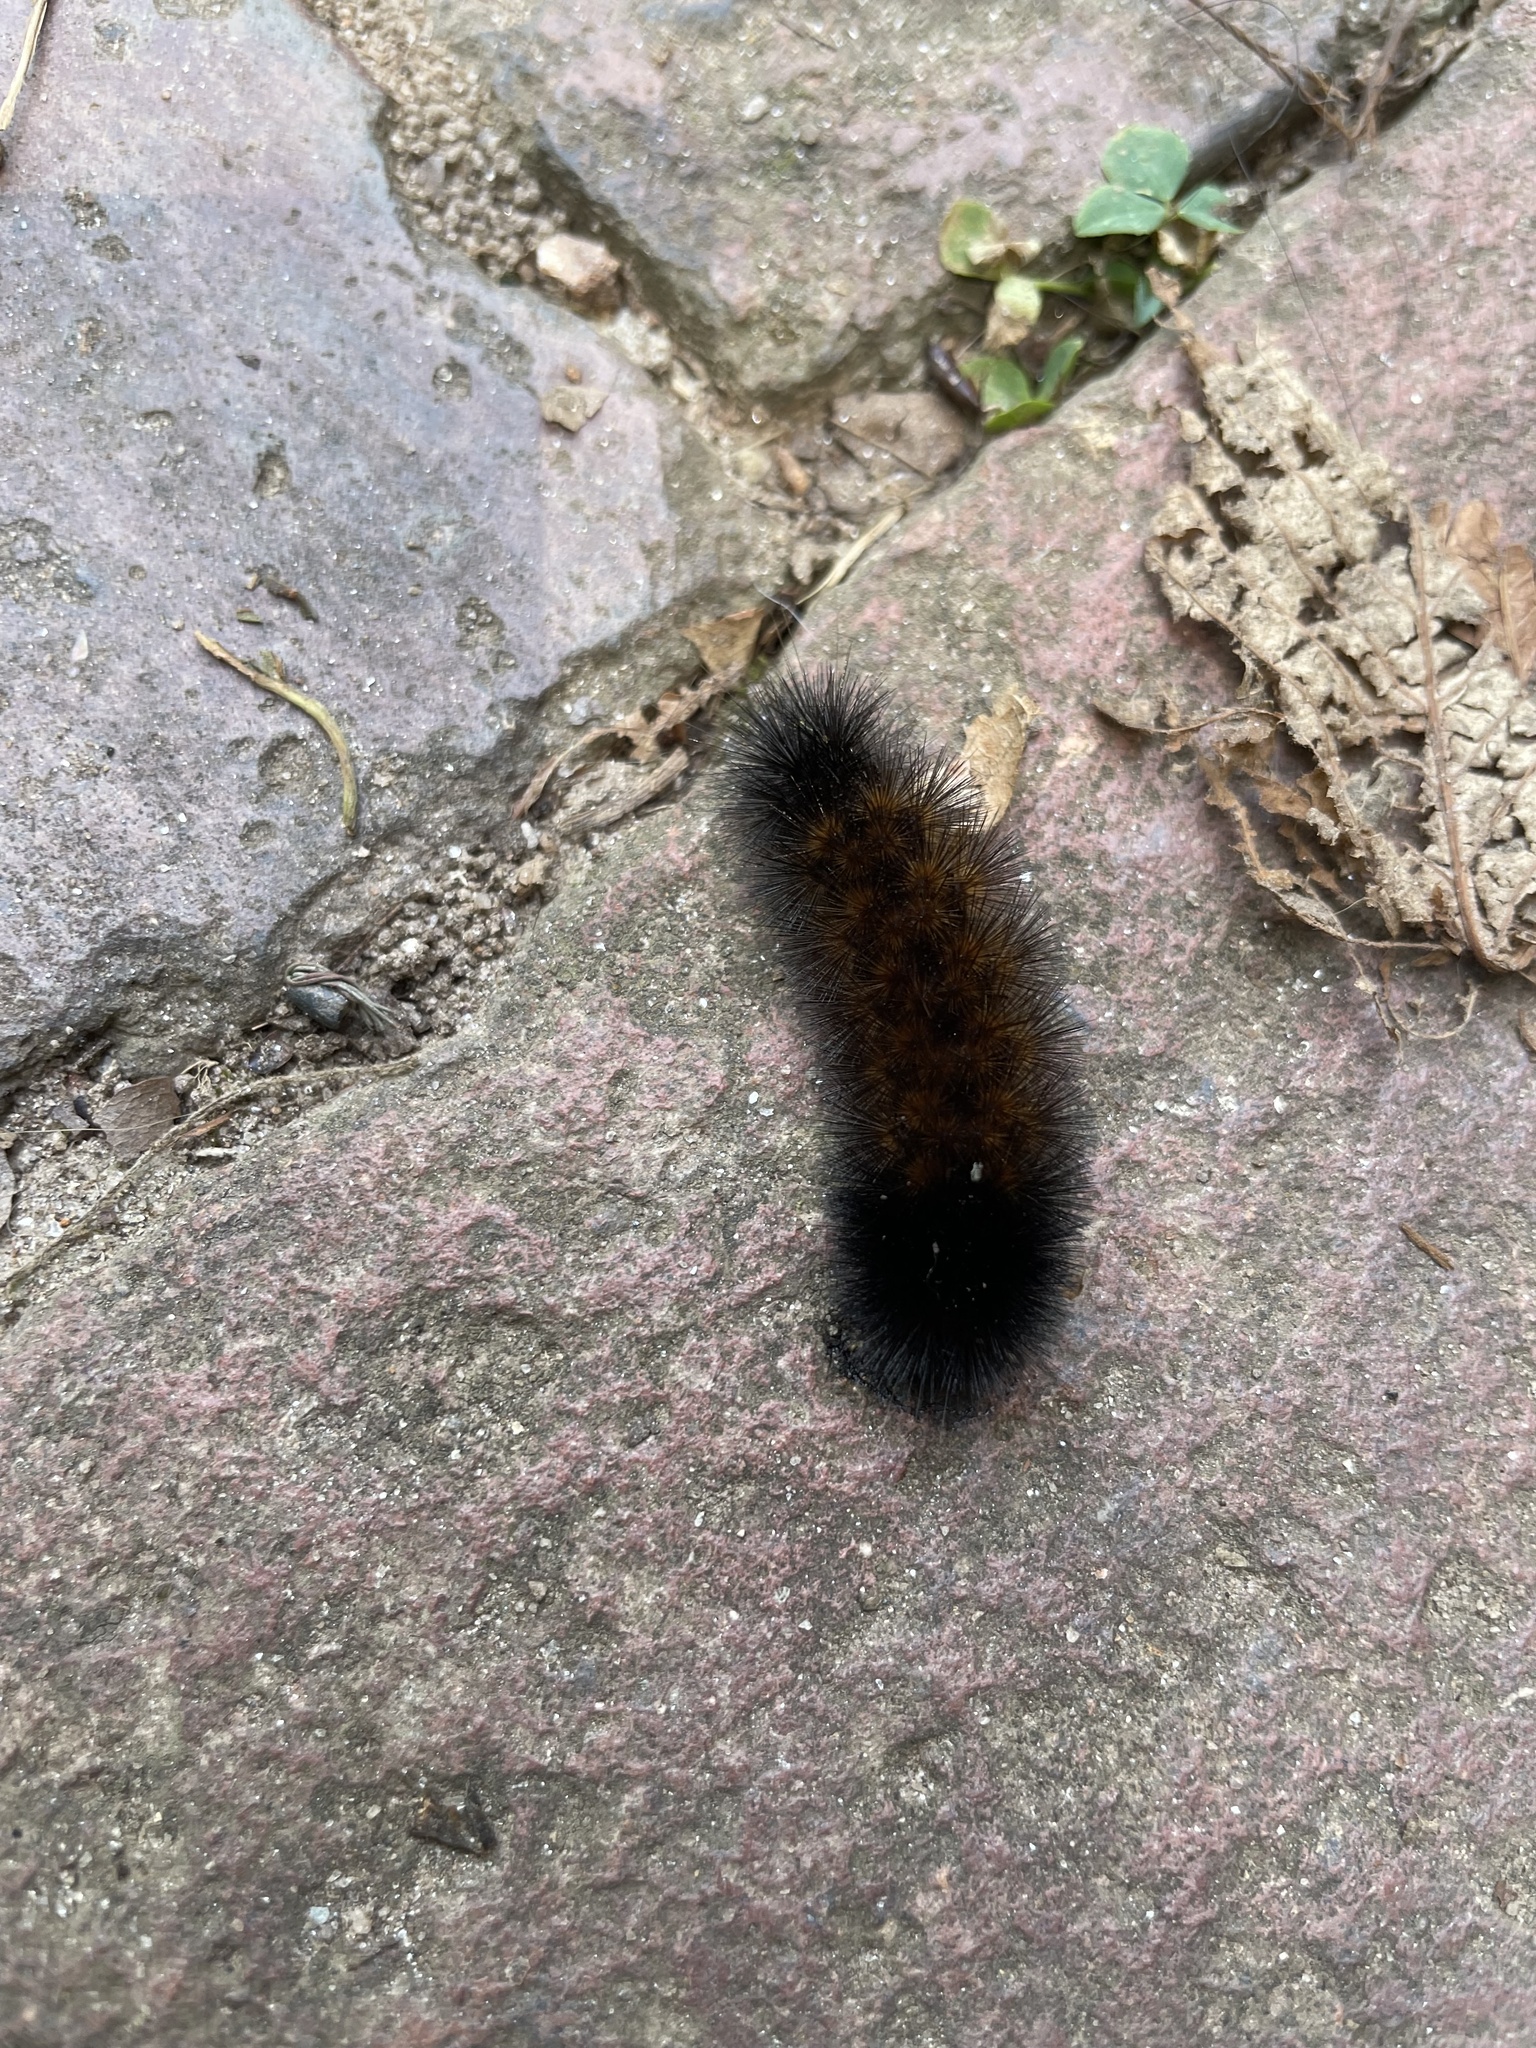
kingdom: Animalia
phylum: Arthropoda
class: Insecta
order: Lepidoptera
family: Erebidae
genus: Pyrrharctia
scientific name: Pyrrharctia isabella
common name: Isabella tiger moth
